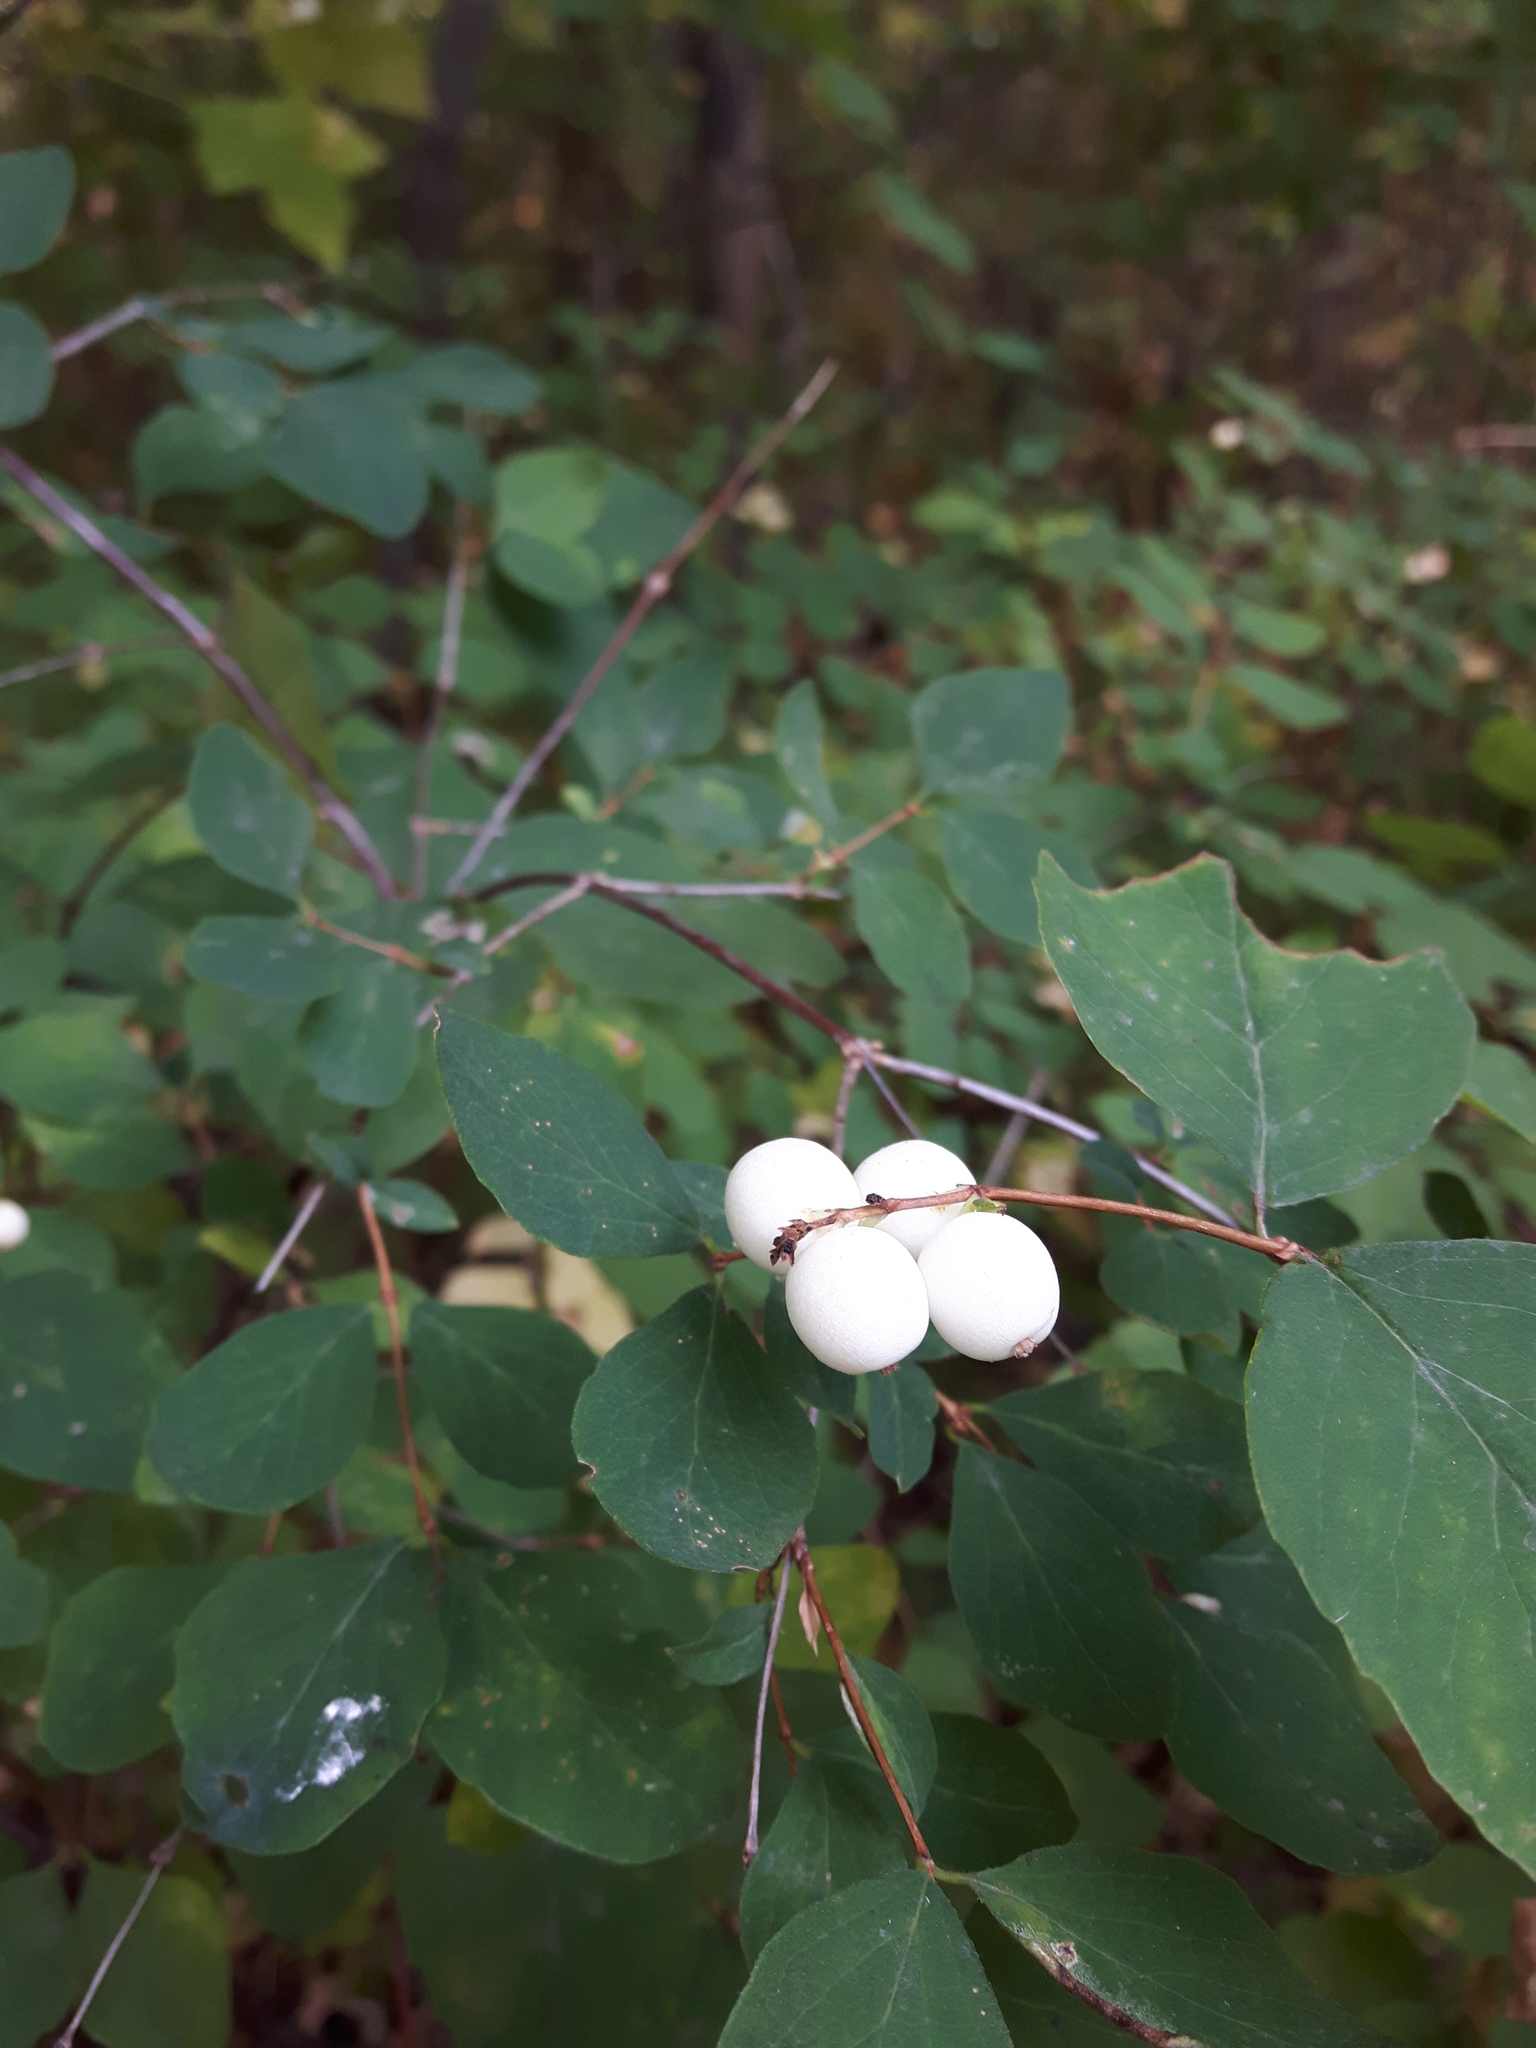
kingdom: Plantae
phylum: Tracheophyta
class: Magnoliopsida
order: Dipsacales
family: Caprifoliaceae
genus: Symphoricarpos
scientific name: Symphoricarpos albus
